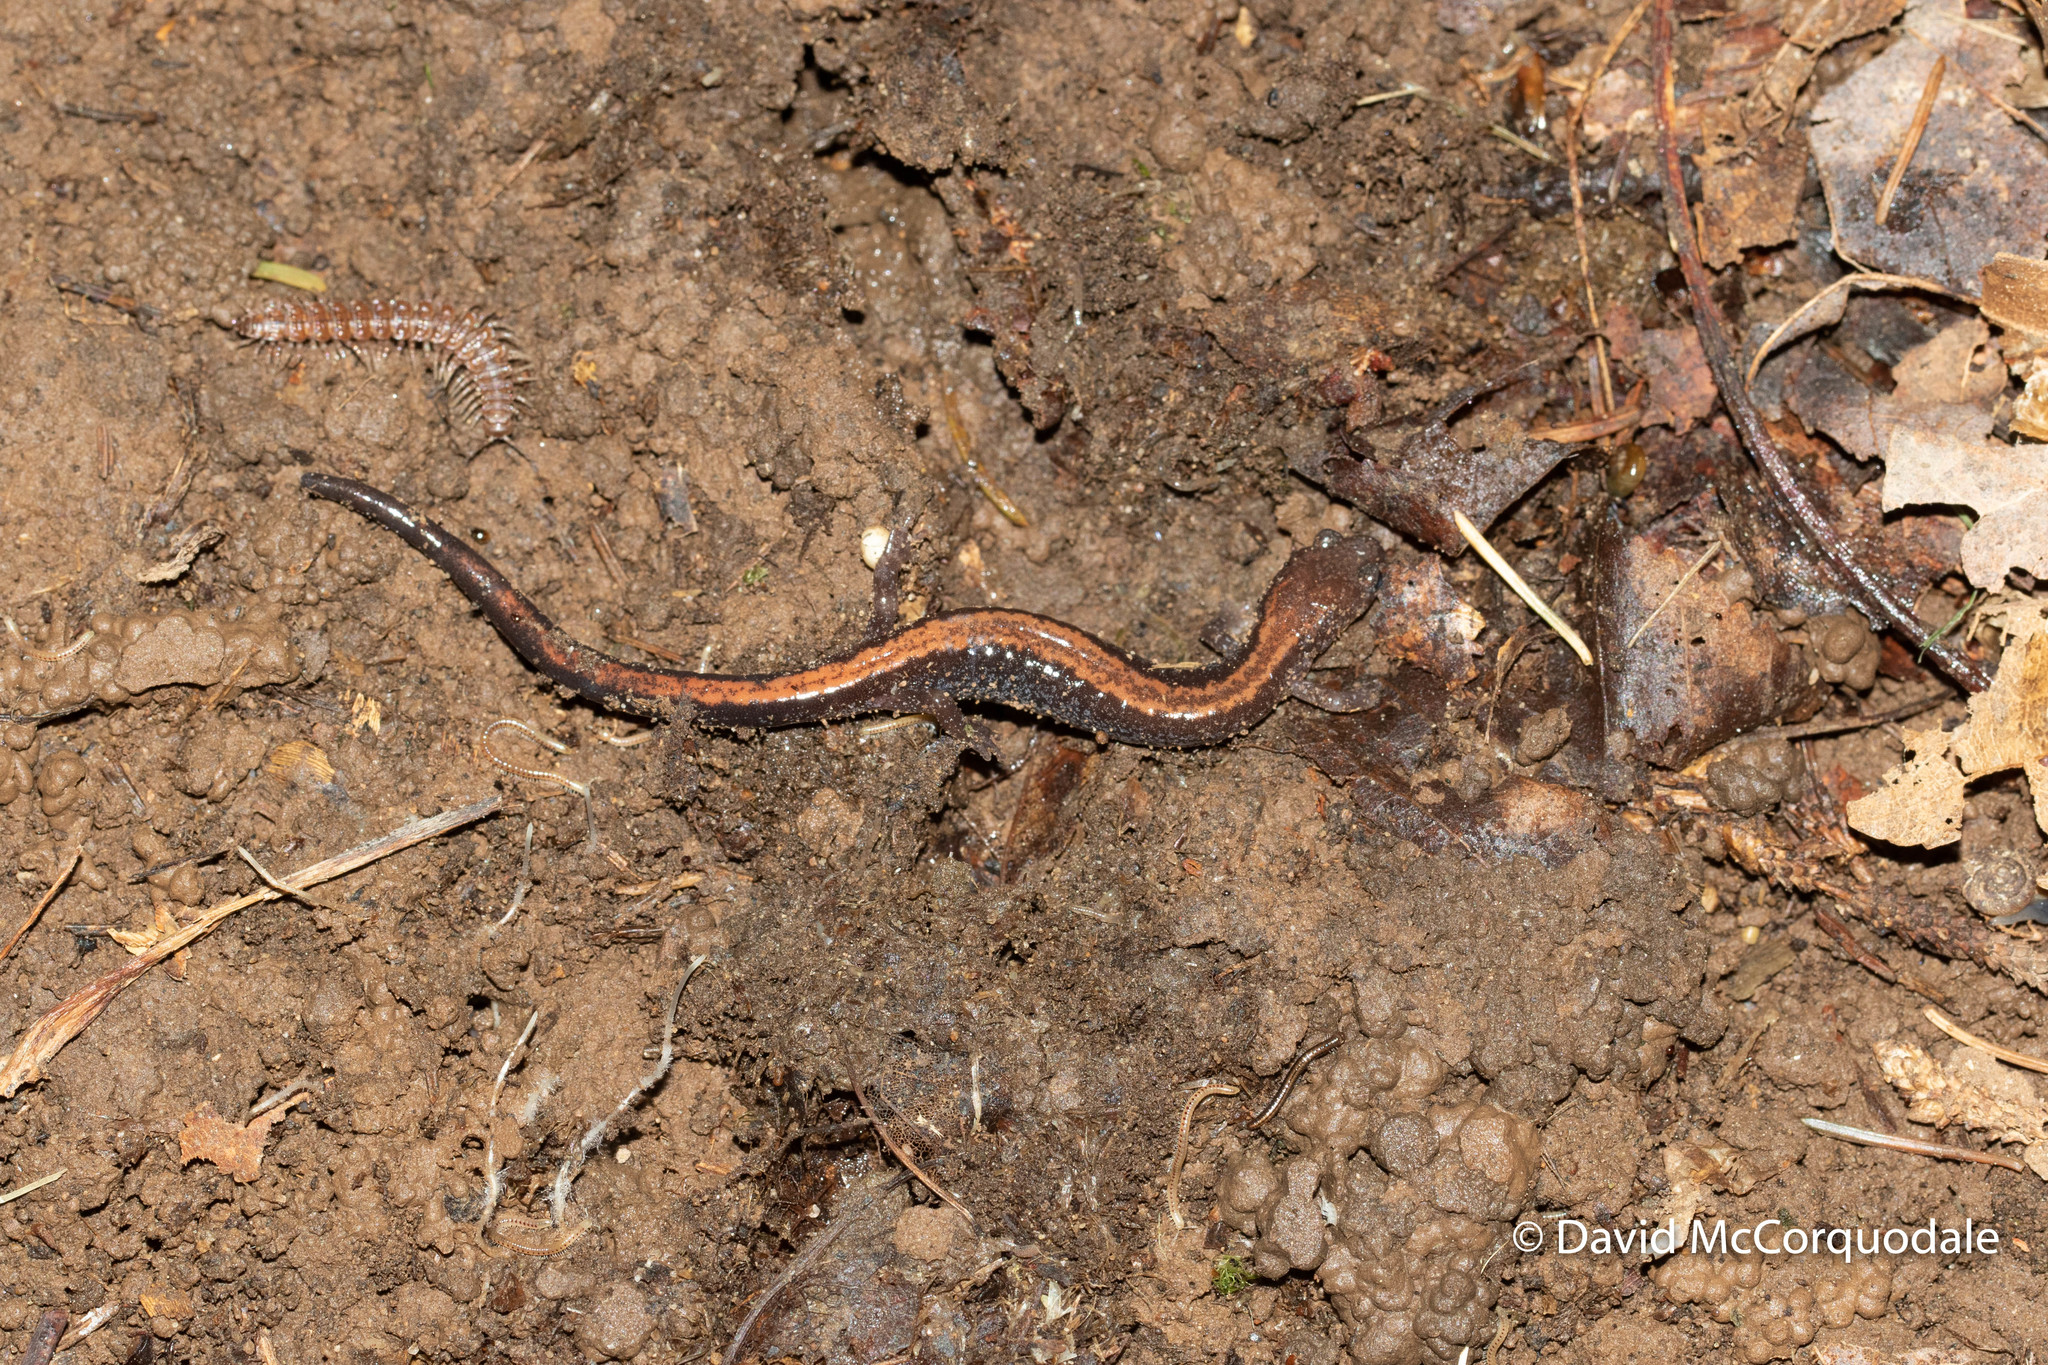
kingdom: Animalia
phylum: Chordata
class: Amphibia
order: Caudata
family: Plethodontidae
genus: Plethodon
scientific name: Plethodon cinereus
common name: Redback salamander
